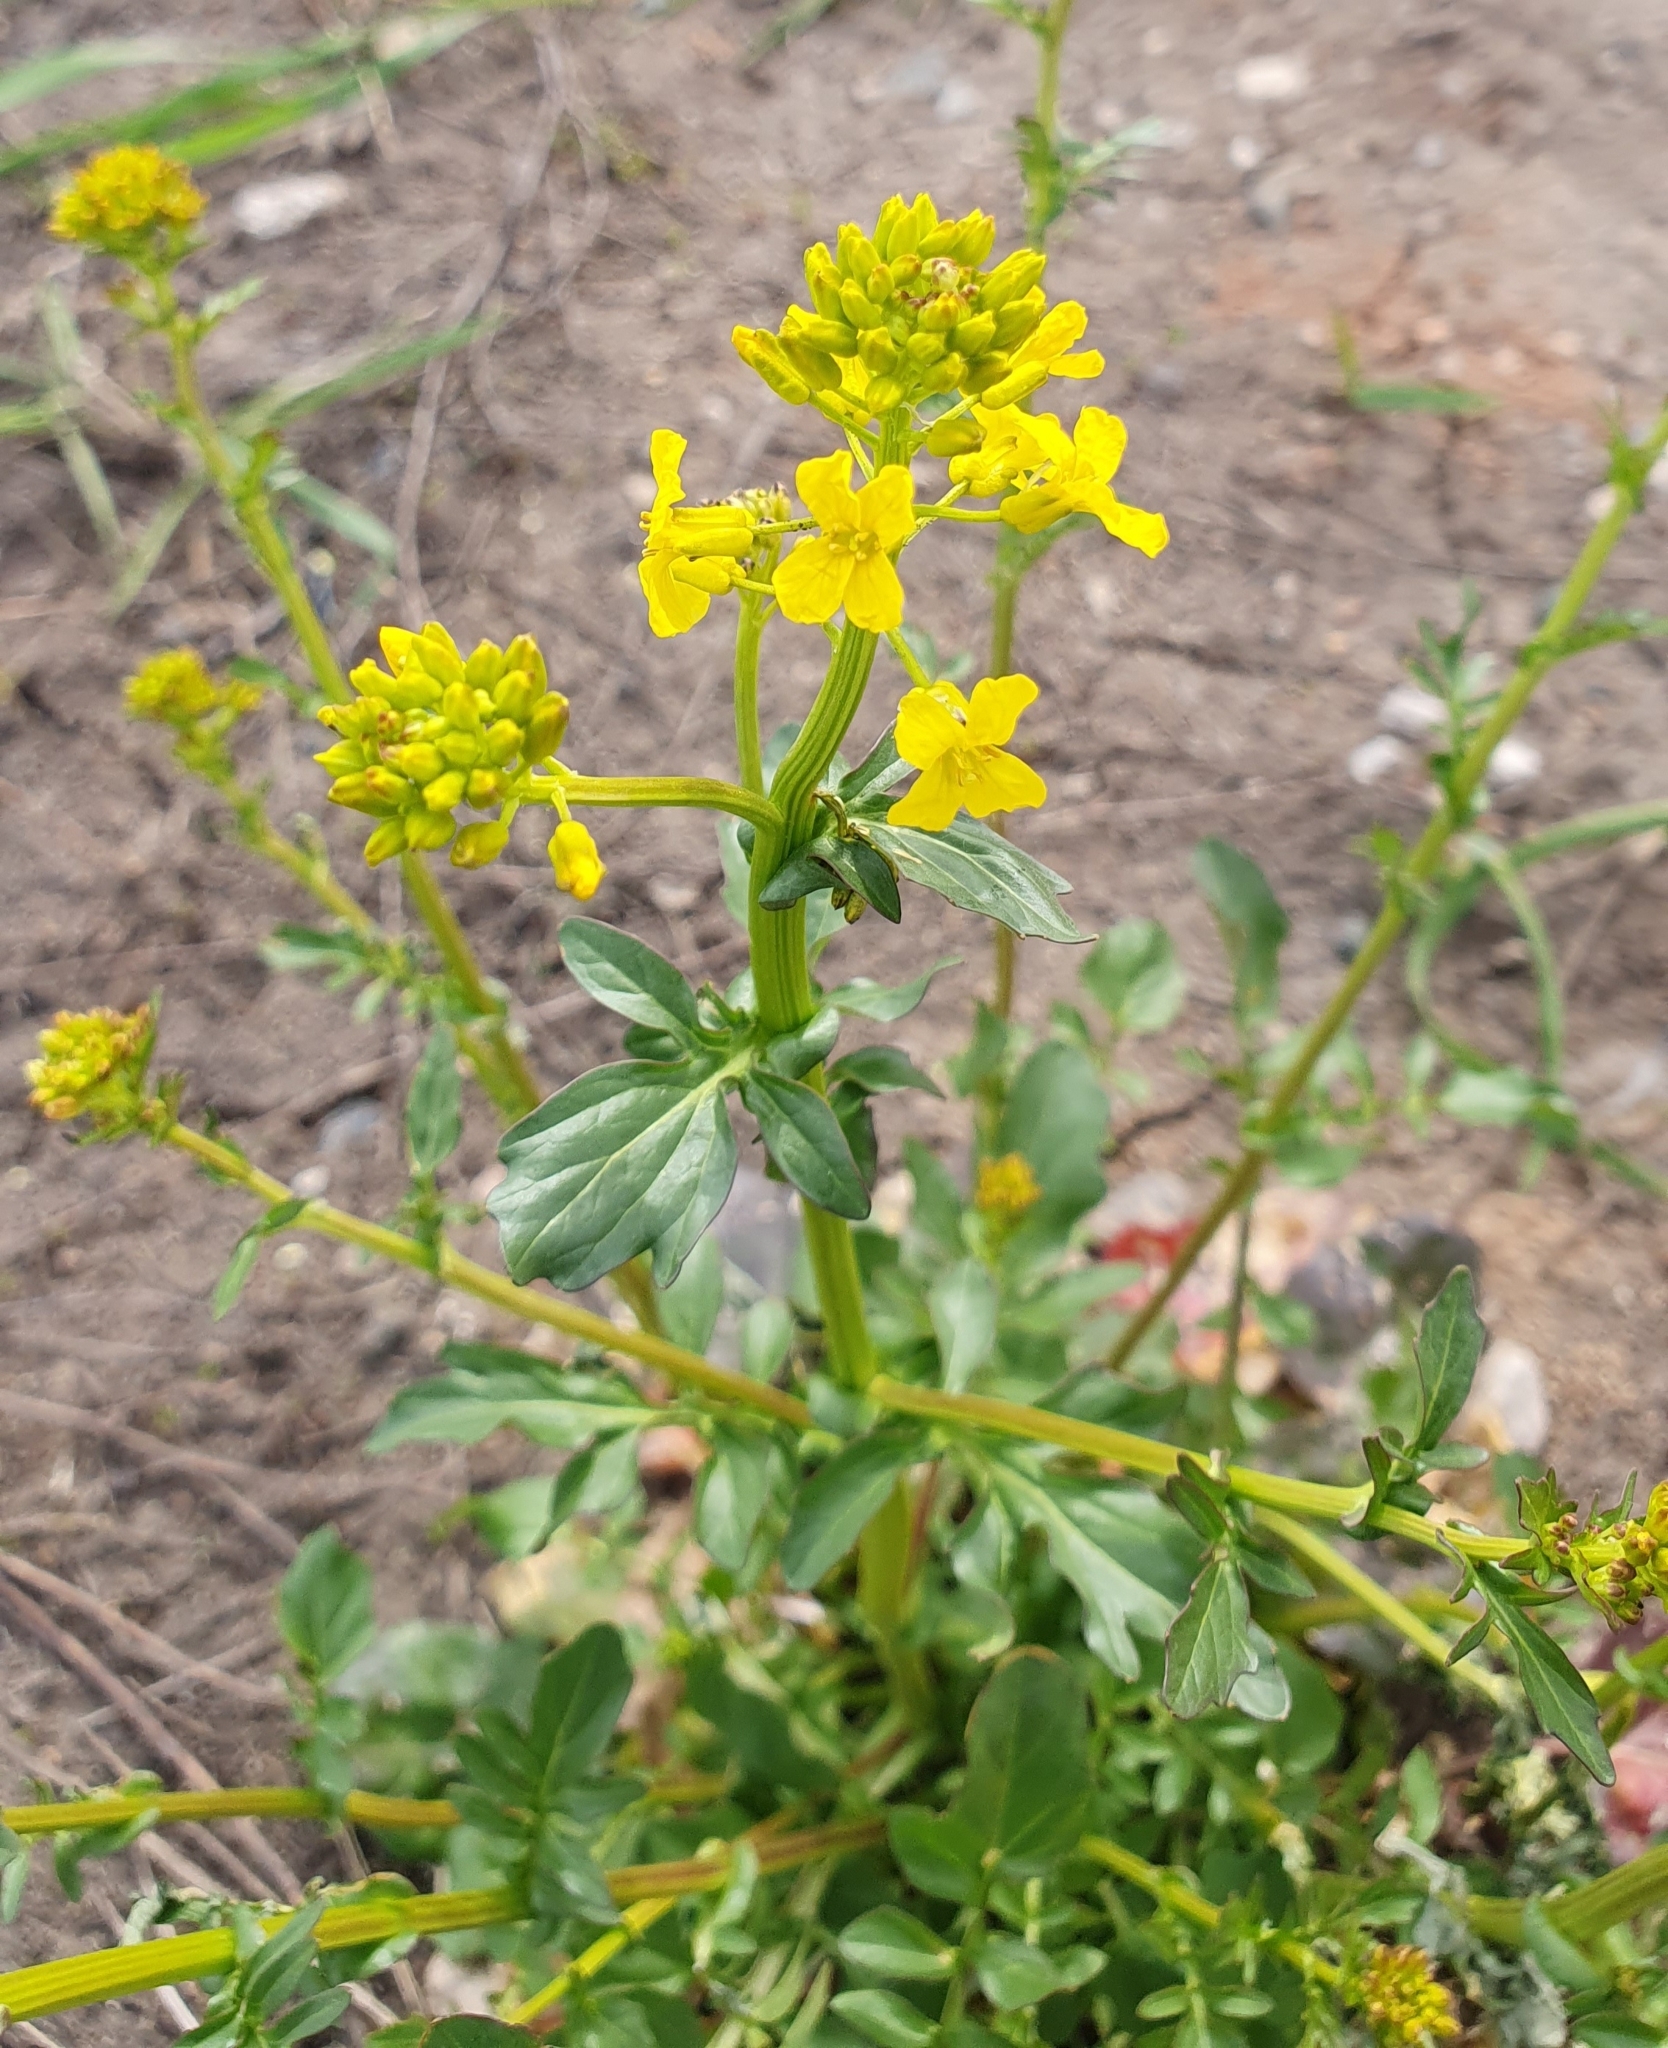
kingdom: Plantae
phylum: Tracheophyta
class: Magnoliopsida
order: Brassicales
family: Brassicaceae
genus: Barbarea
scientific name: Barbarea vulgaris
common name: Cressy-greens
